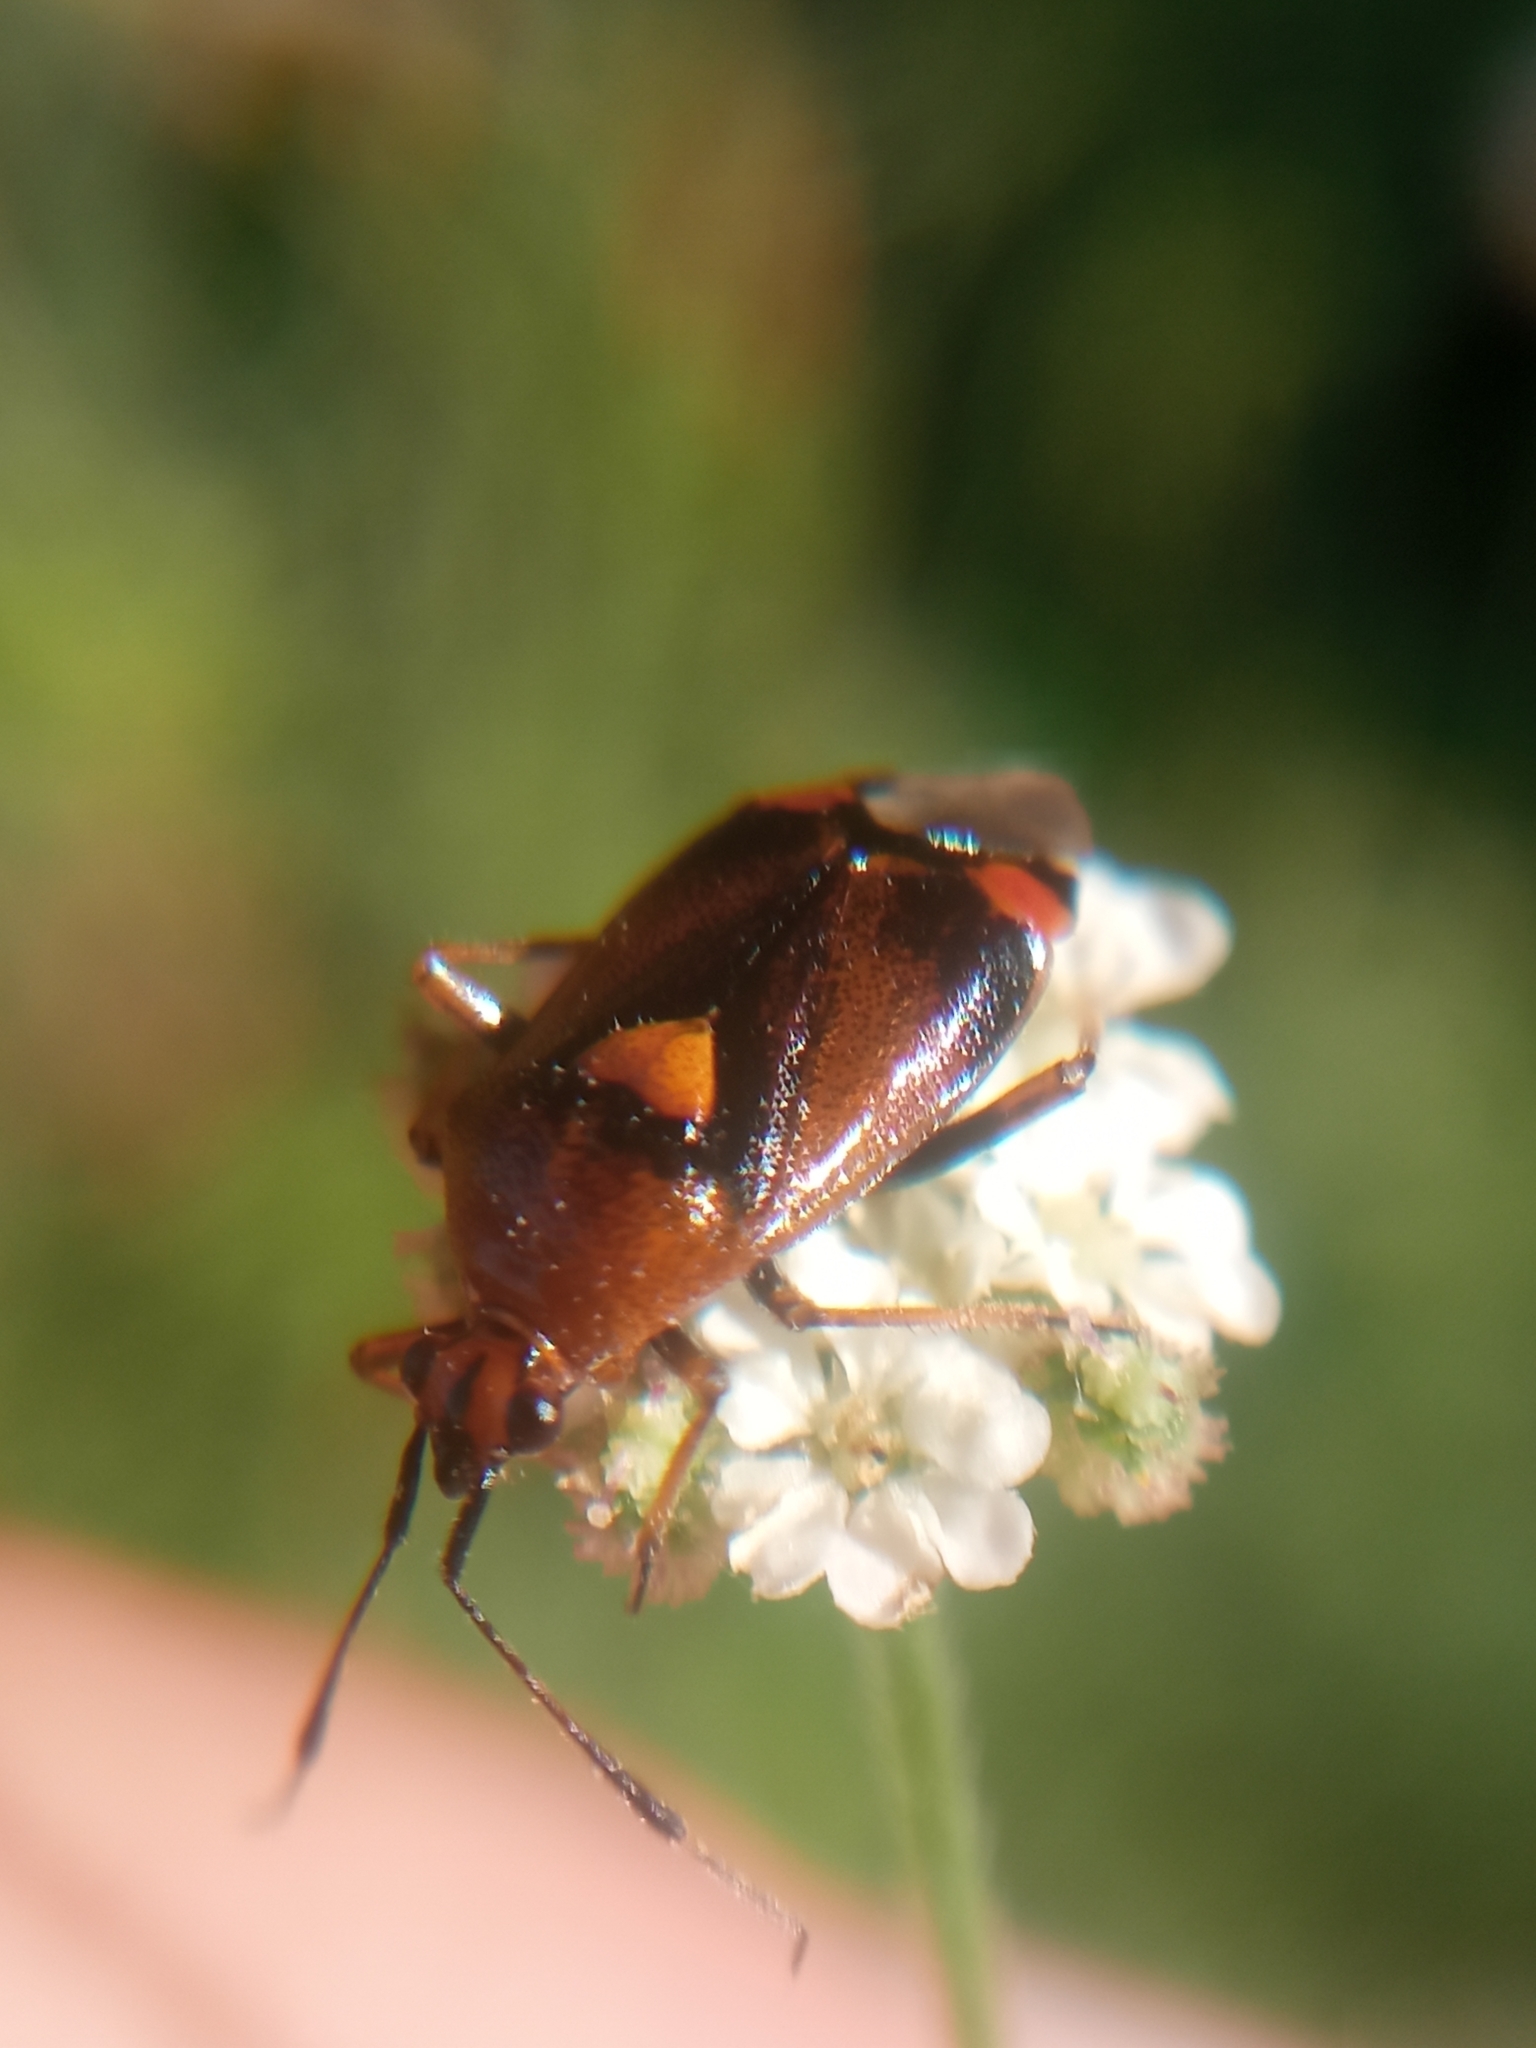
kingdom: Animalia
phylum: Arthropoda
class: Insecta
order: Hemiptera
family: Miridae
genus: Deraeocoris
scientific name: Deraeocoris ruber
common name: Plant bug
